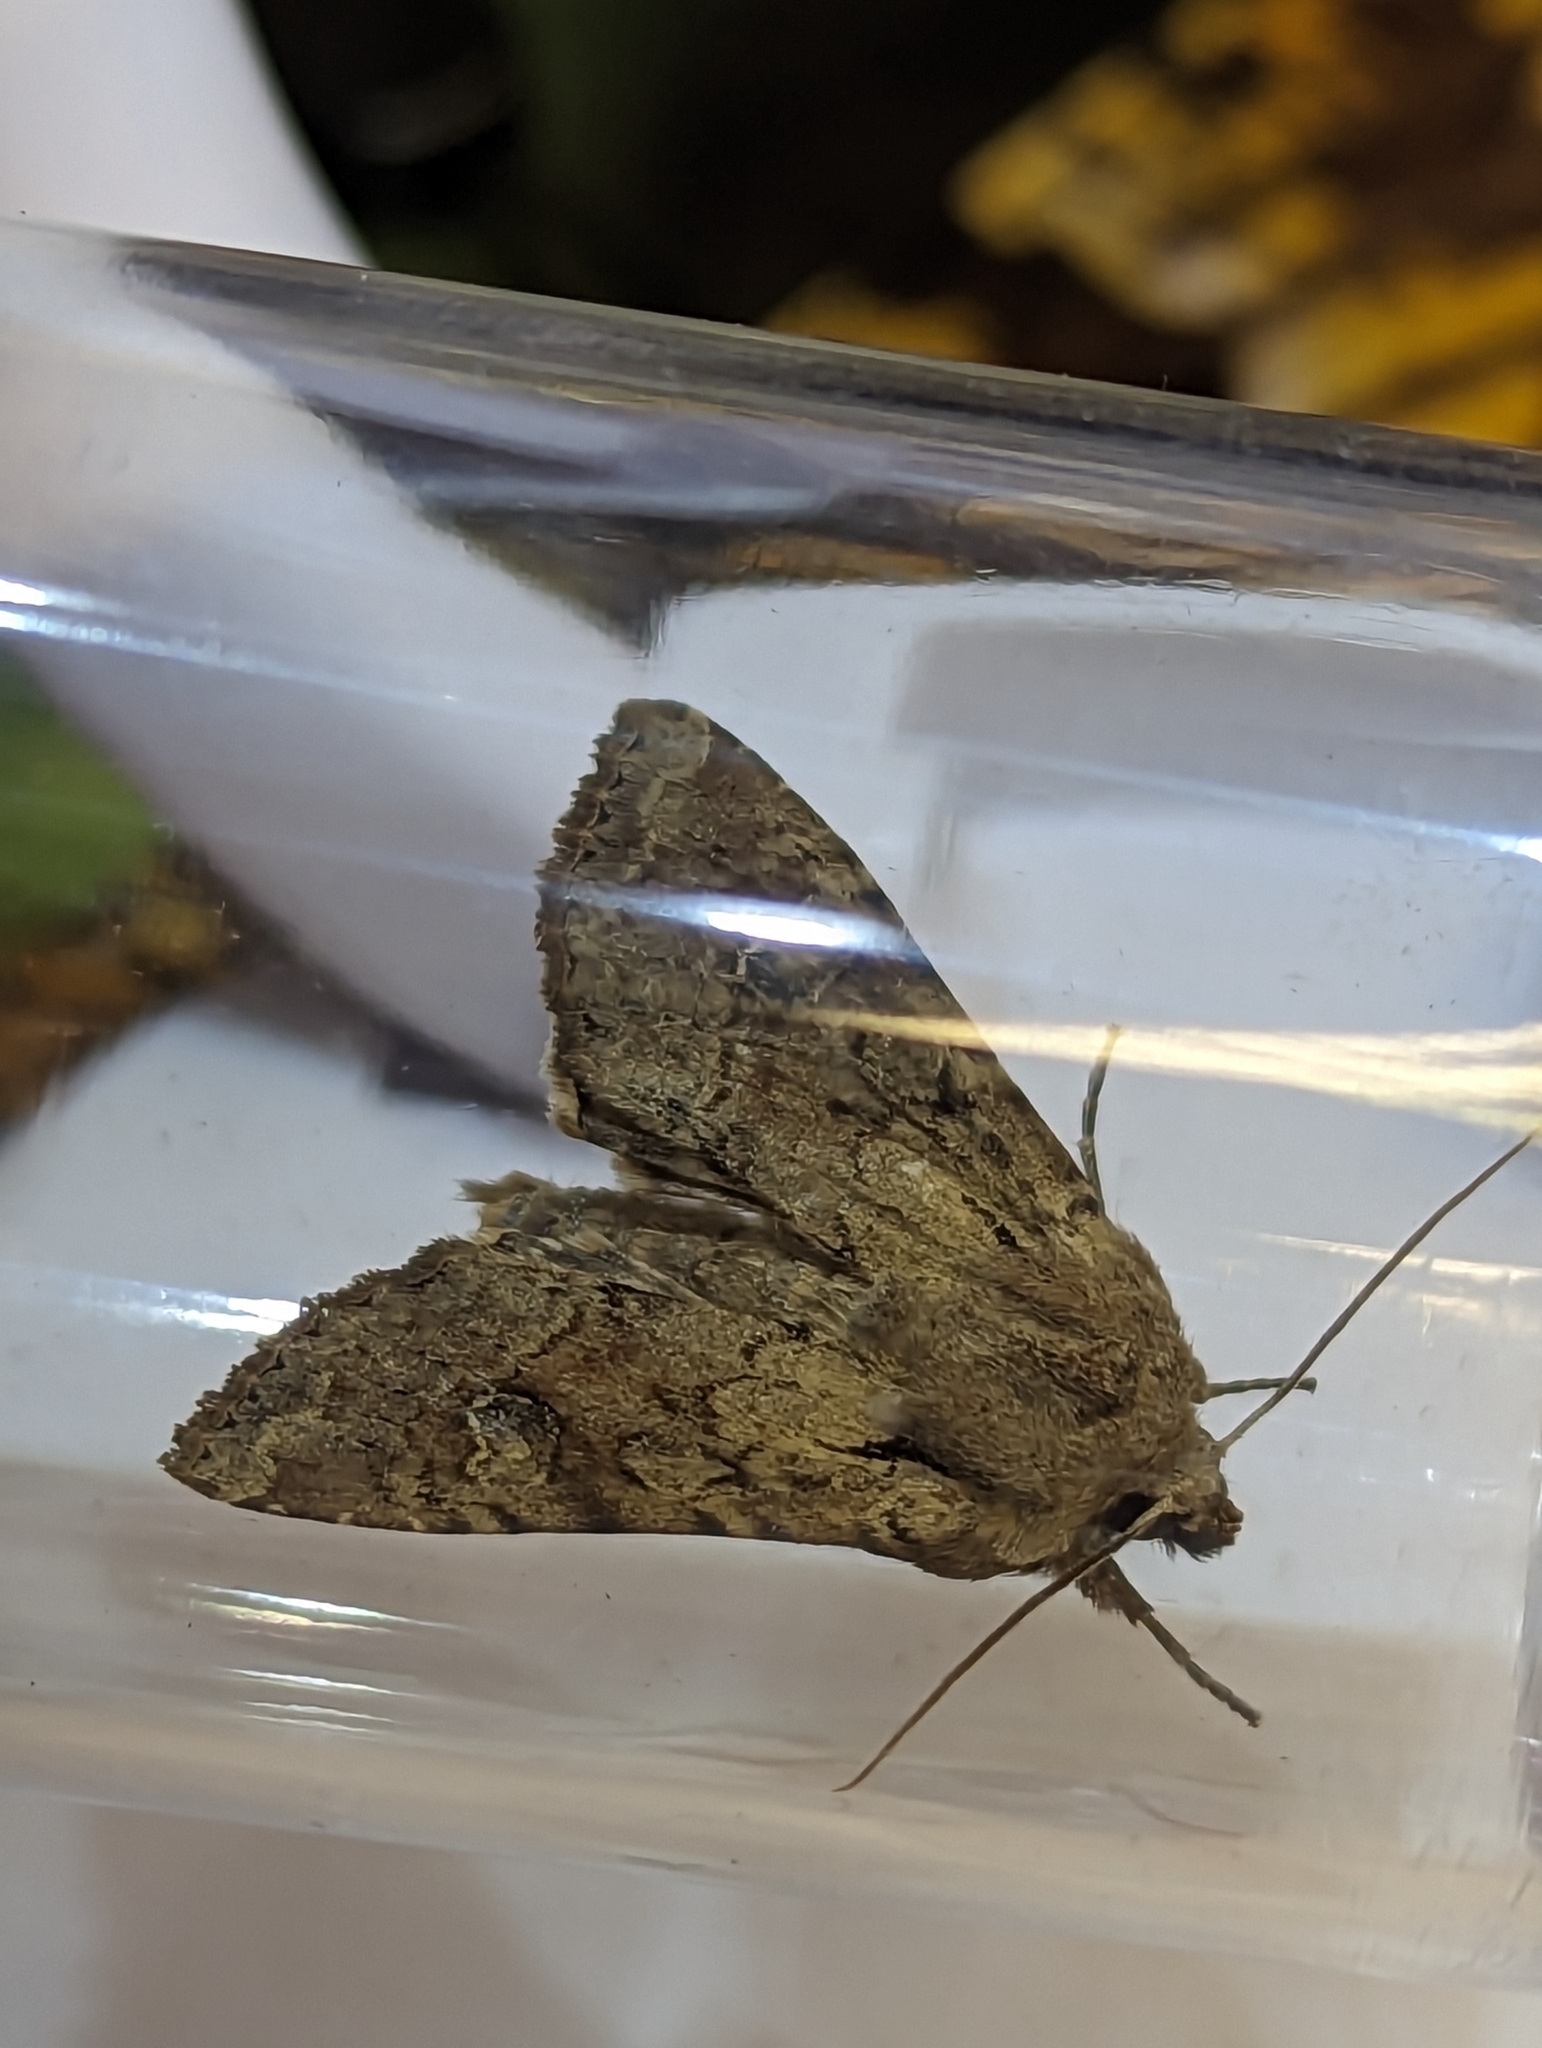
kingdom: Animalia
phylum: Arthropoda
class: Insecta
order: Lepidoptera
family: Noctuidae
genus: Apamea
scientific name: Apamea sordens
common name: Rustic shoulder-knot
